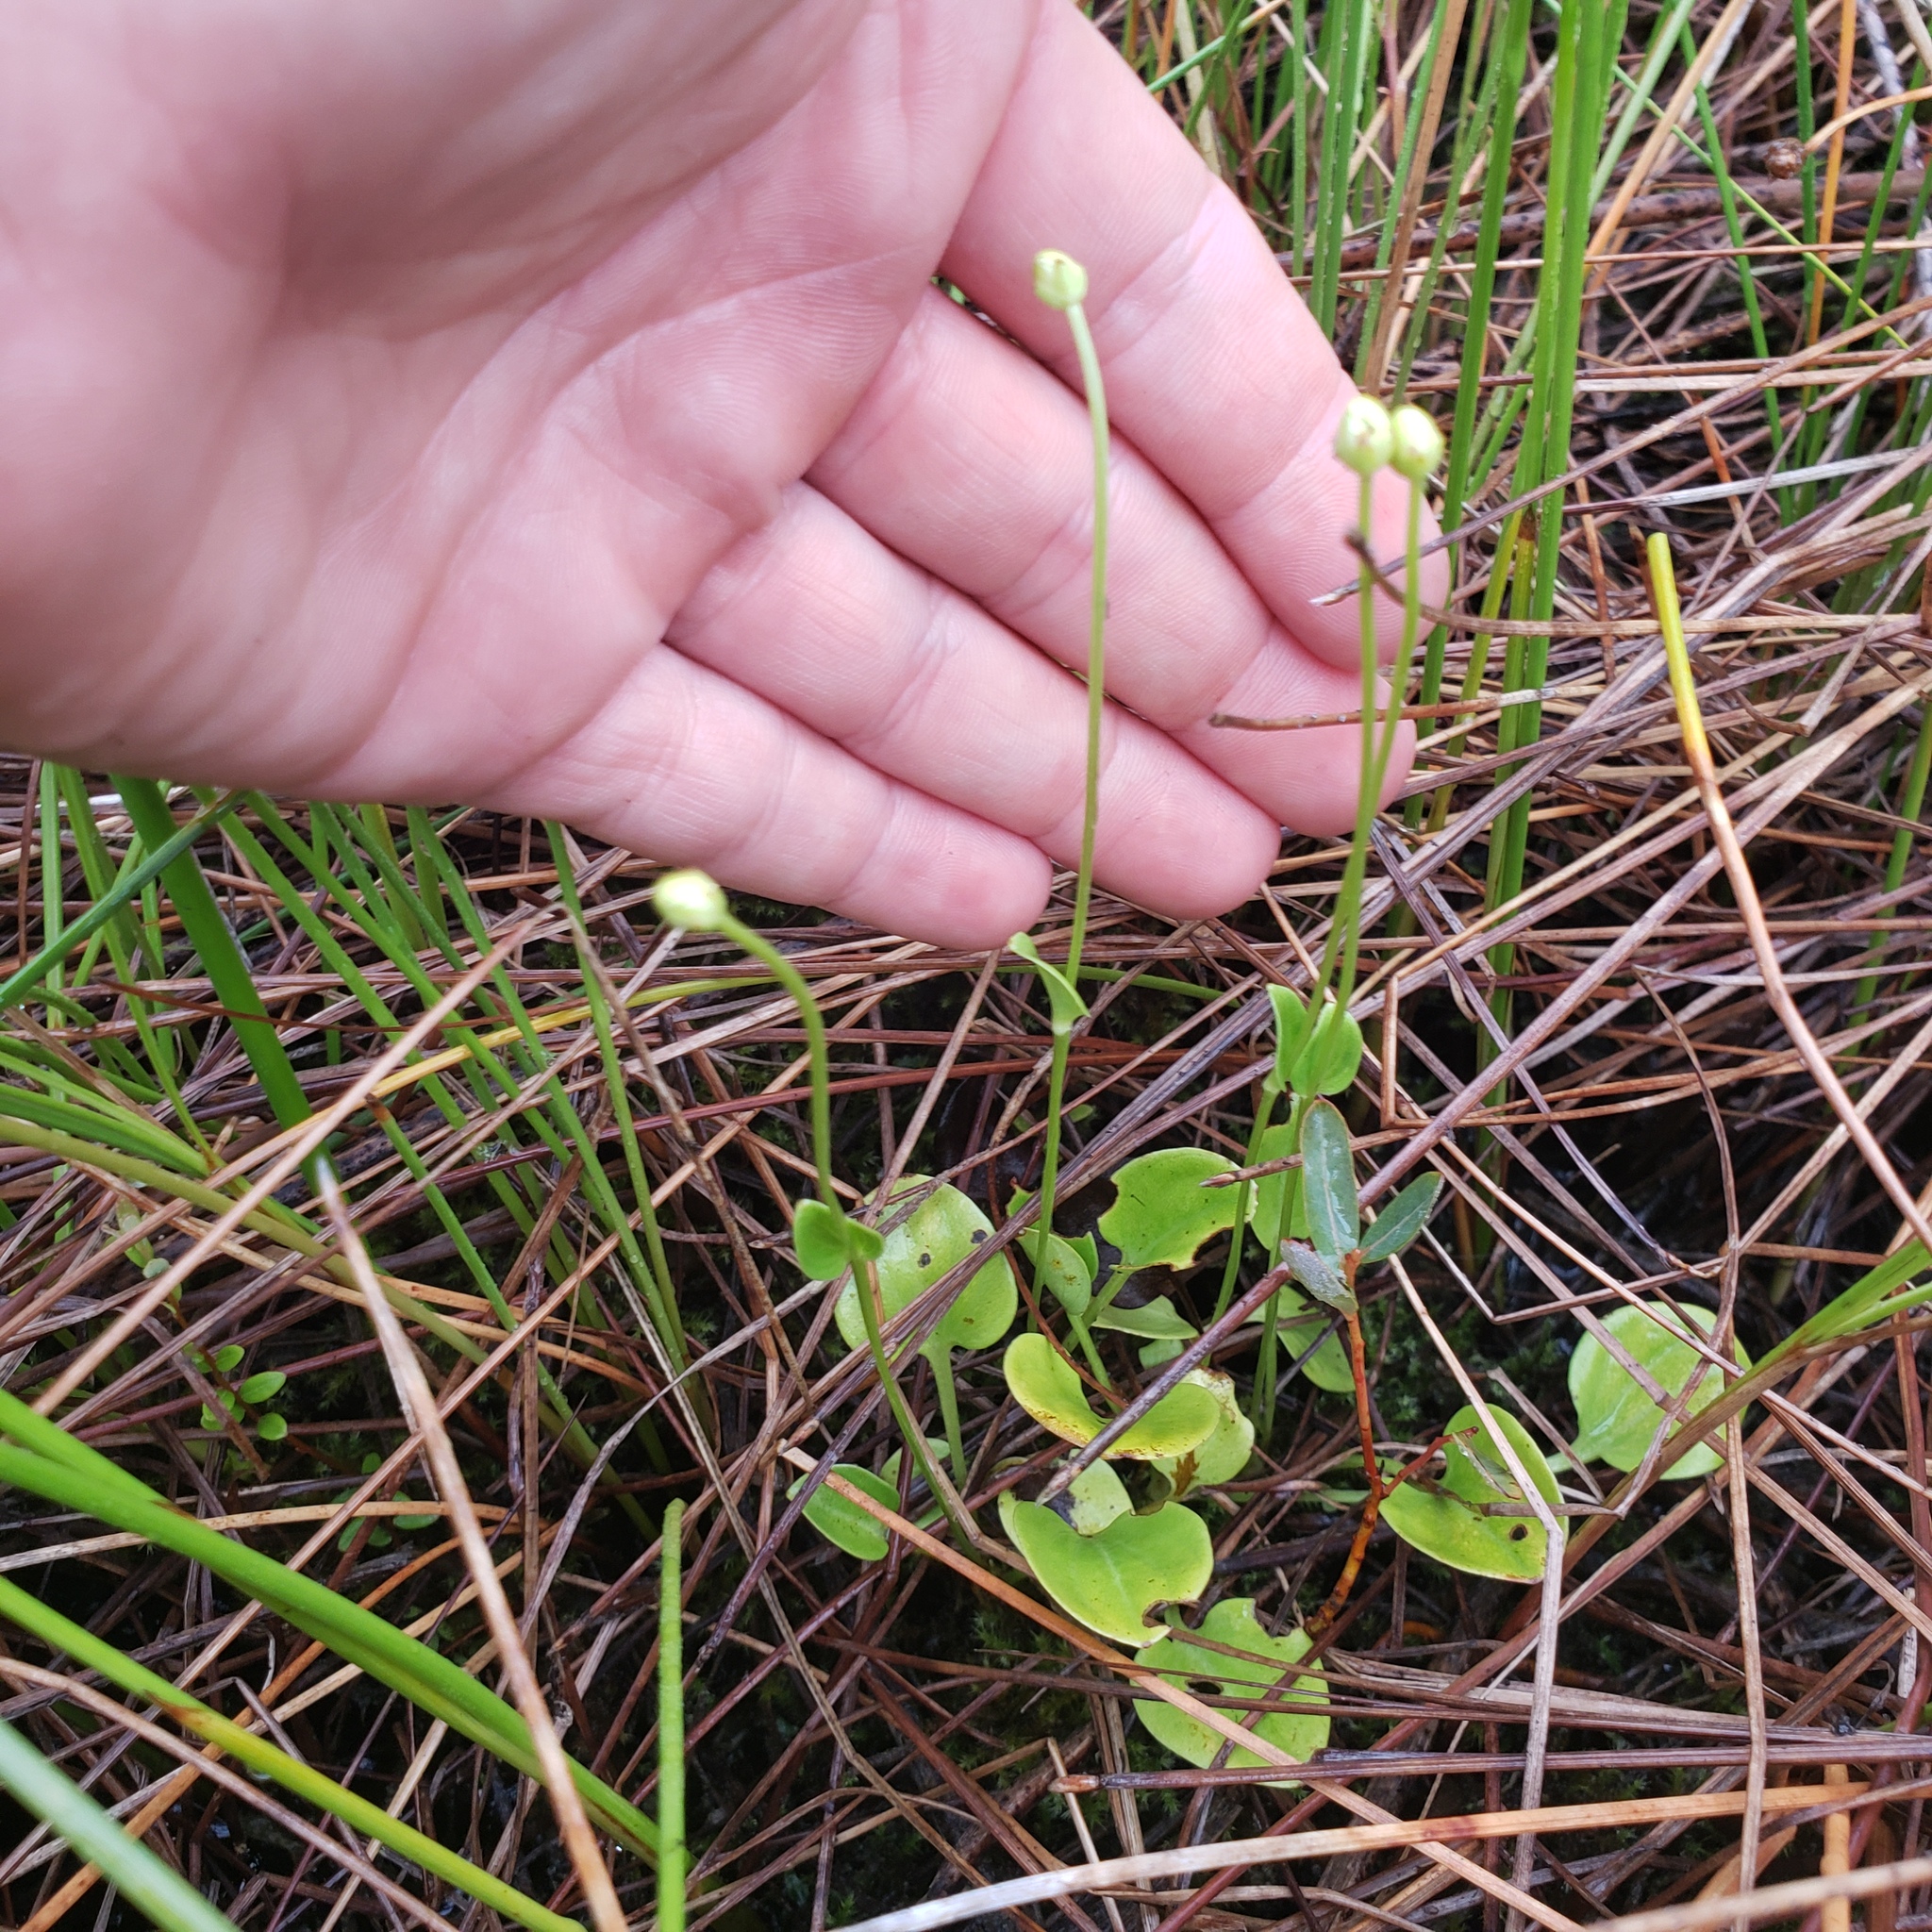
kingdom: Plantae
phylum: Tracheophyta
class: Magnoliopsida
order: Celastrales
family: Parnassiaceae
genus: Parnassia
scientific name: Parnassia glauca
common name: American grass-of-parnassus
